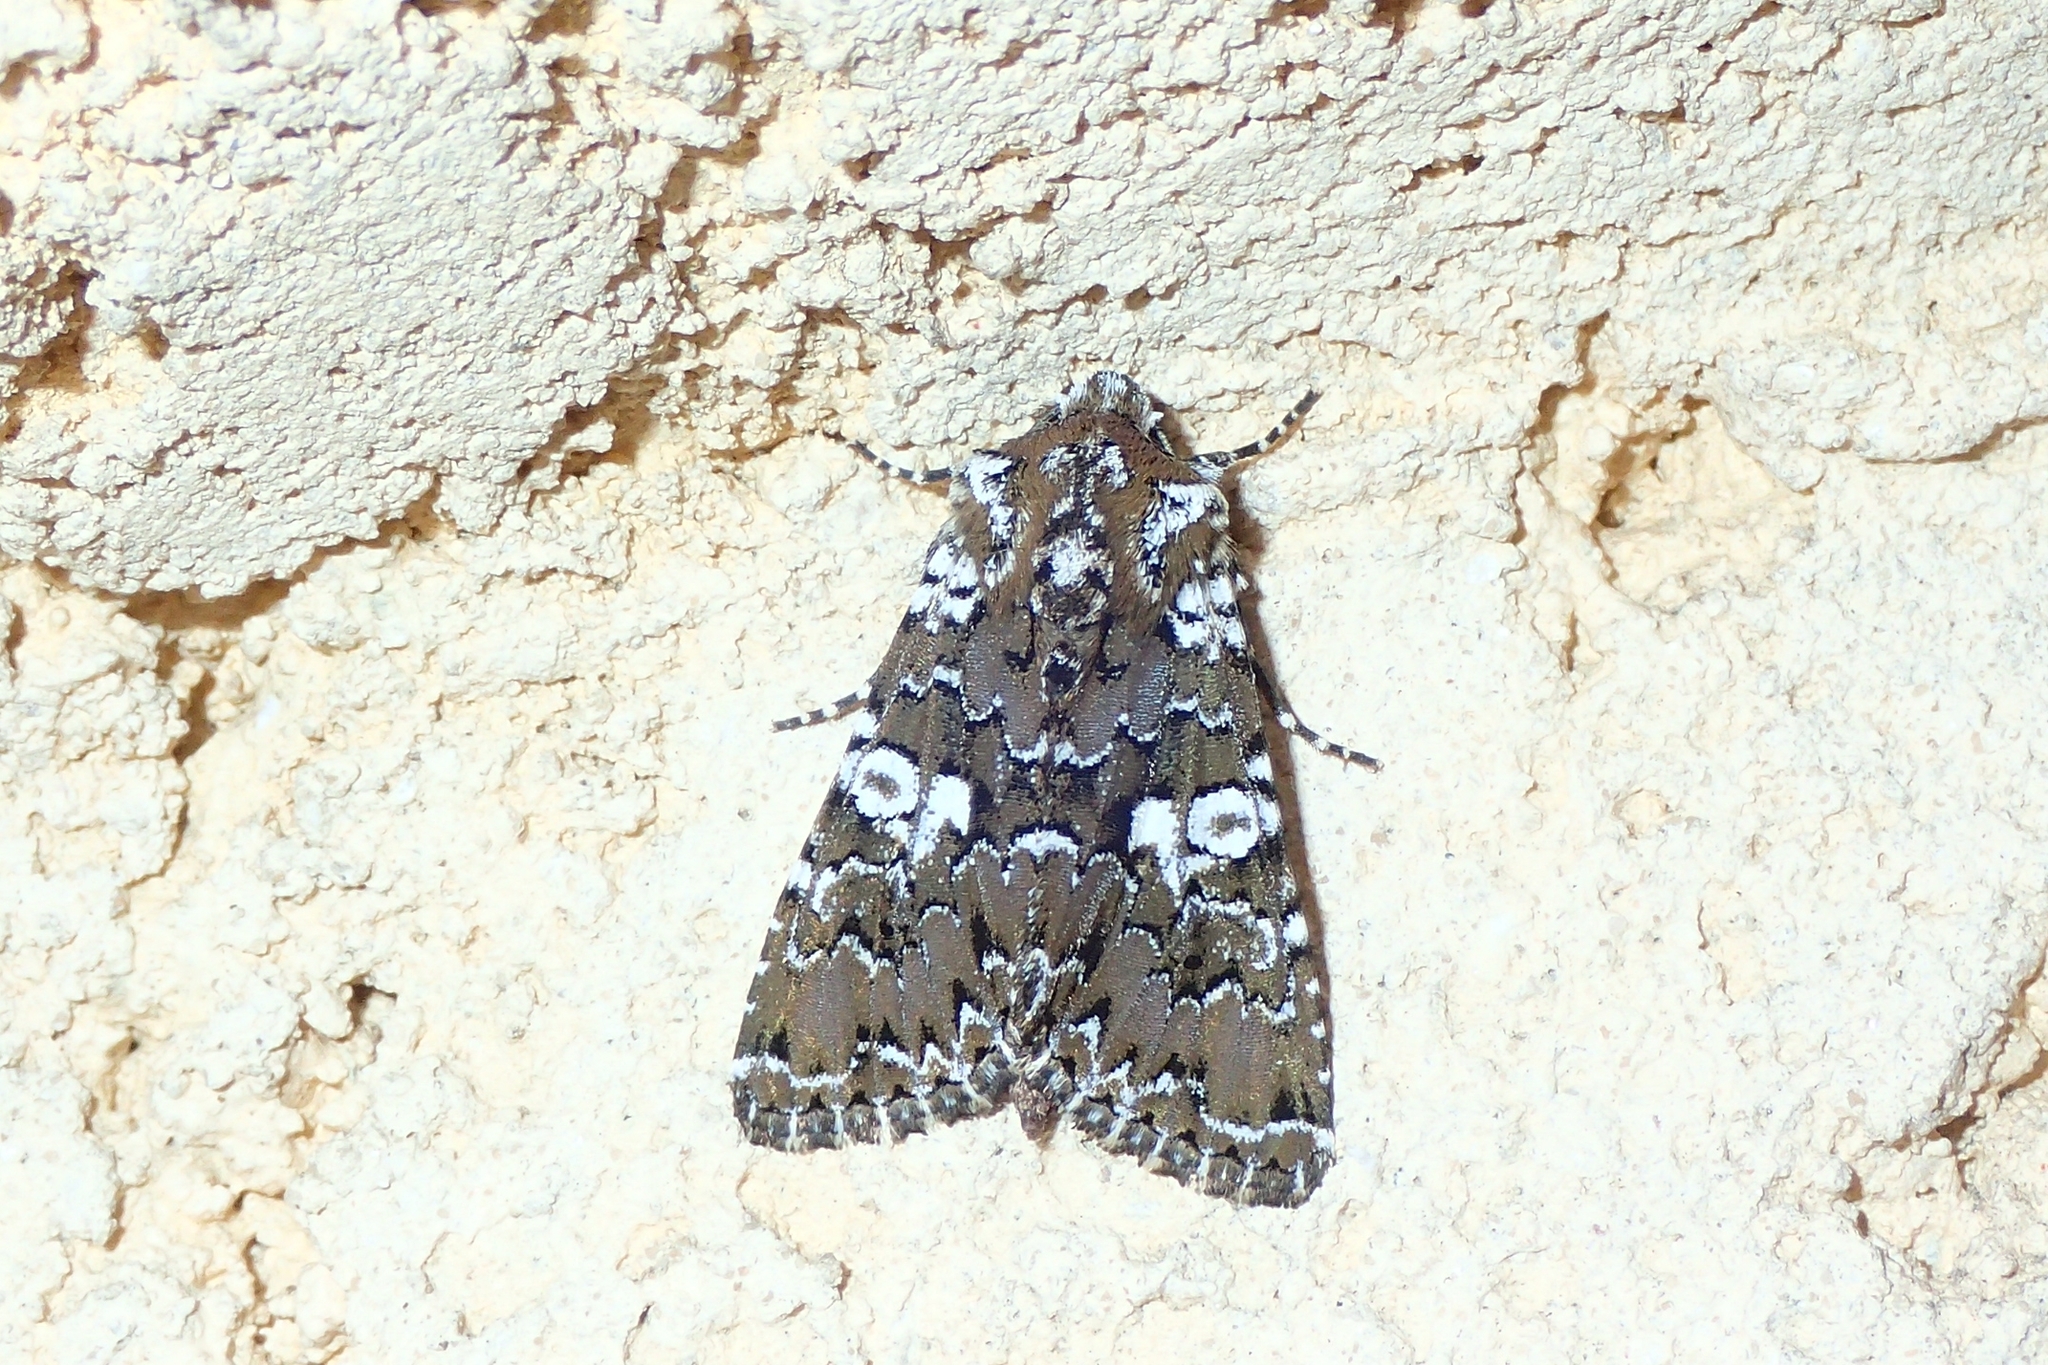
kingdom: Animalia
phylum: Arthropoda
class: Insecta
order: Lepidoptera
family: Noctuidae
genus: Hadena
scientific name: Hadena albimacula
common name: White spot
